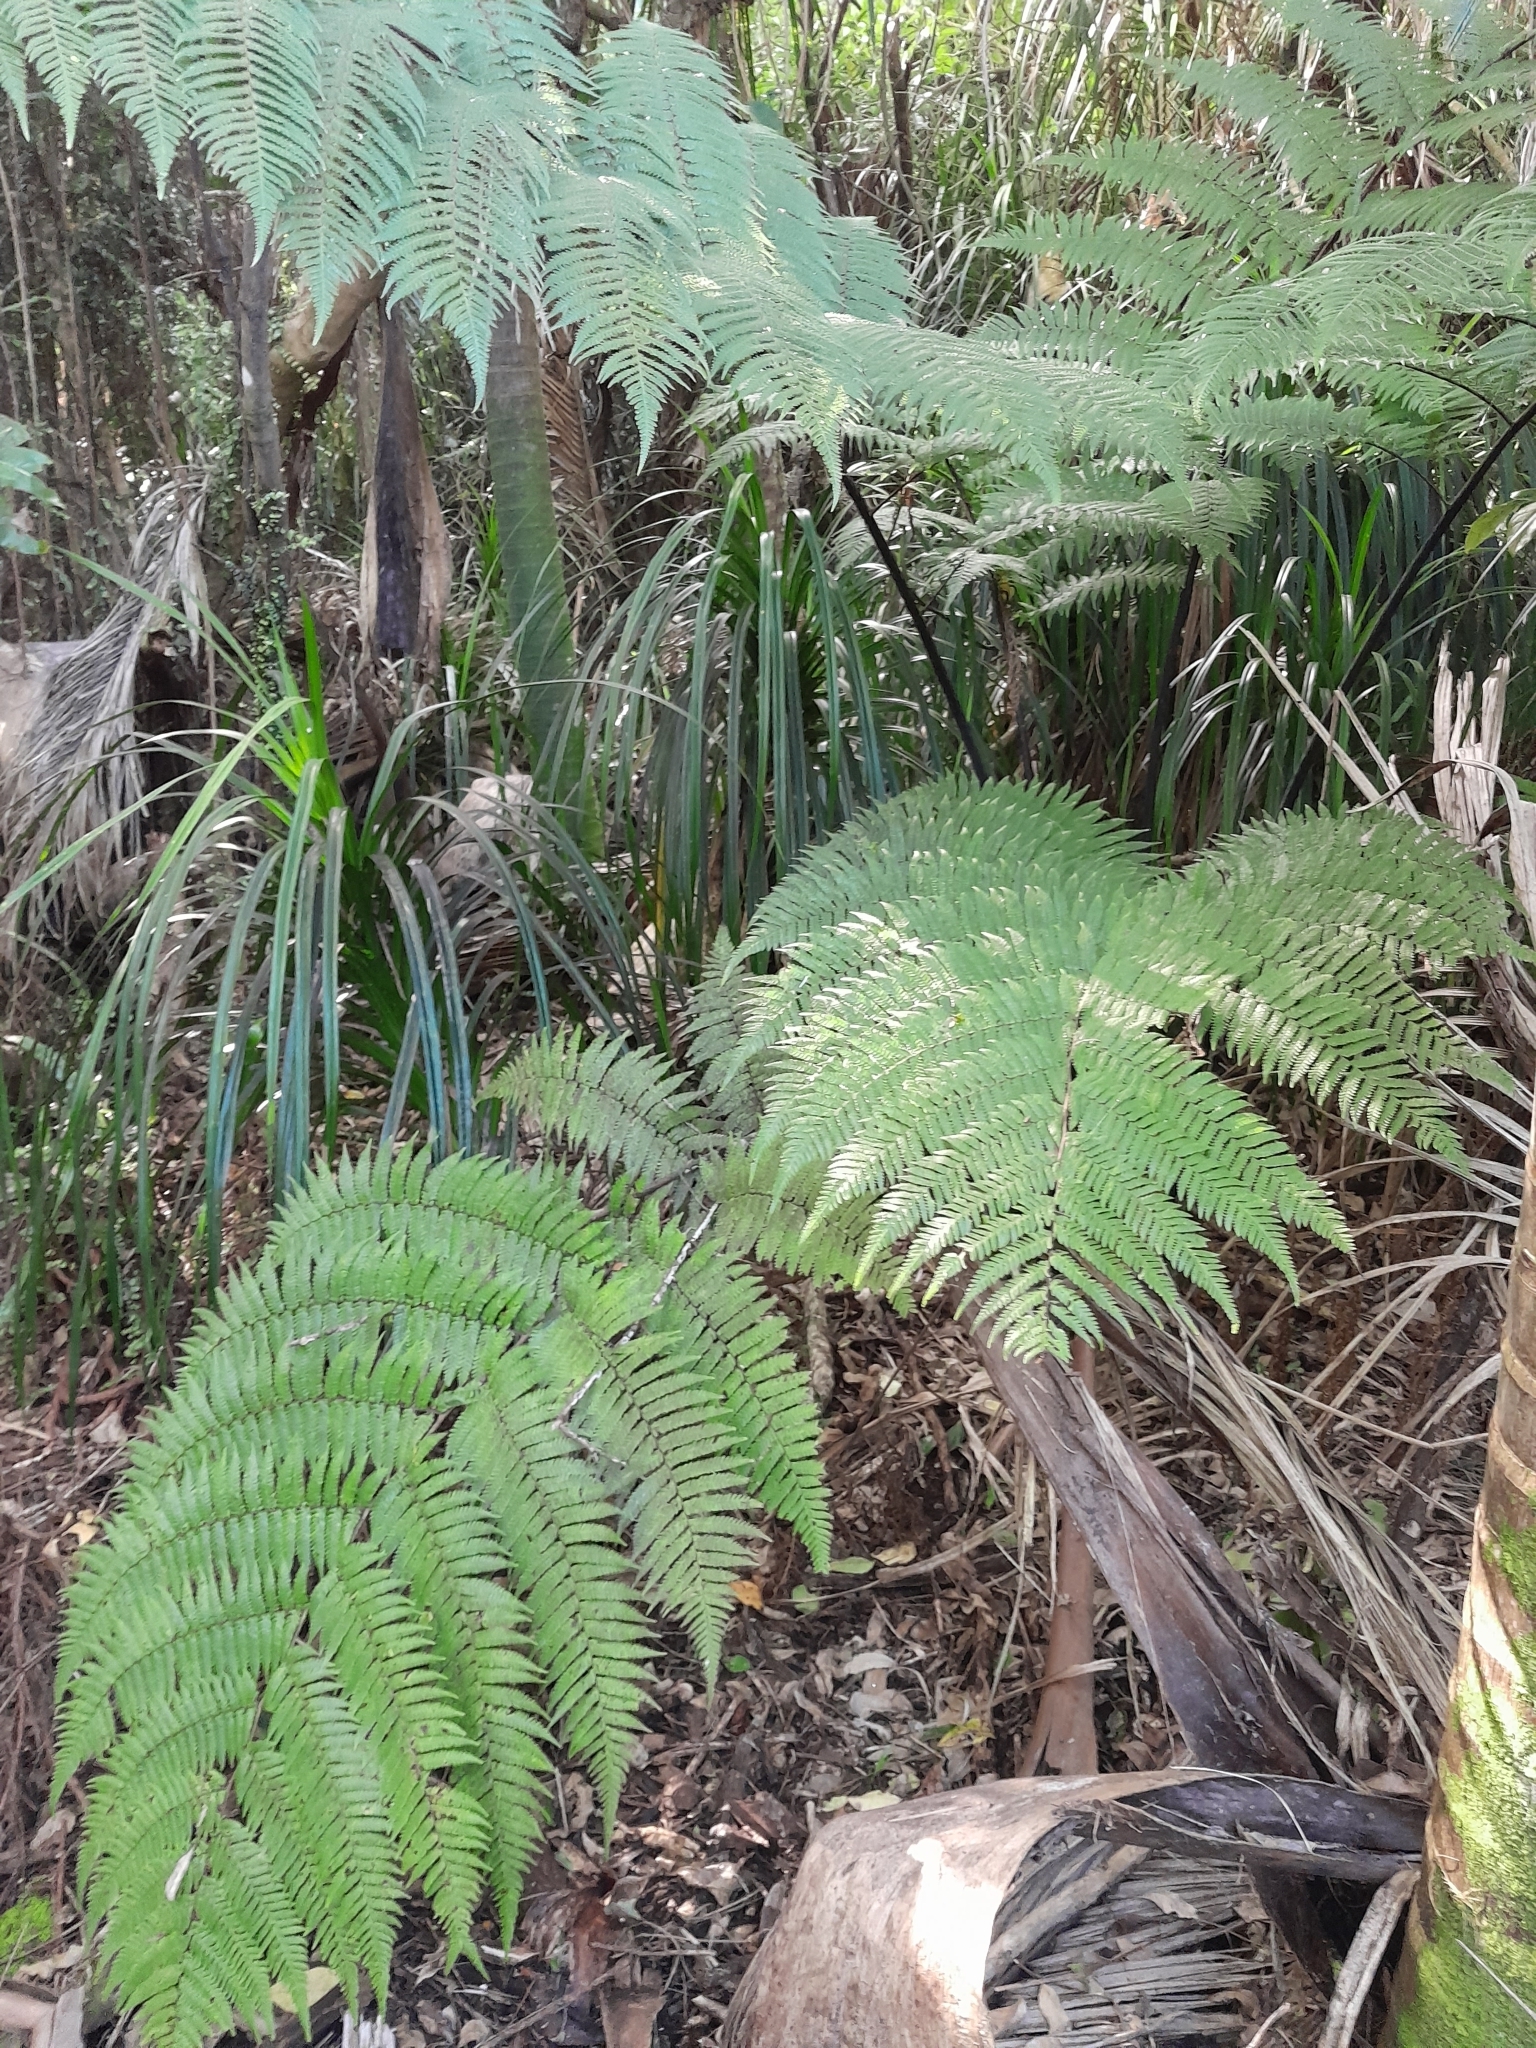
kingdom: Plantae
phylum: Tracheophyta
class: Polypodiopsida
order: Cyatheales
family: Cyatheaceae
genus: Alsophila
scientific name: Alsophila smithii
